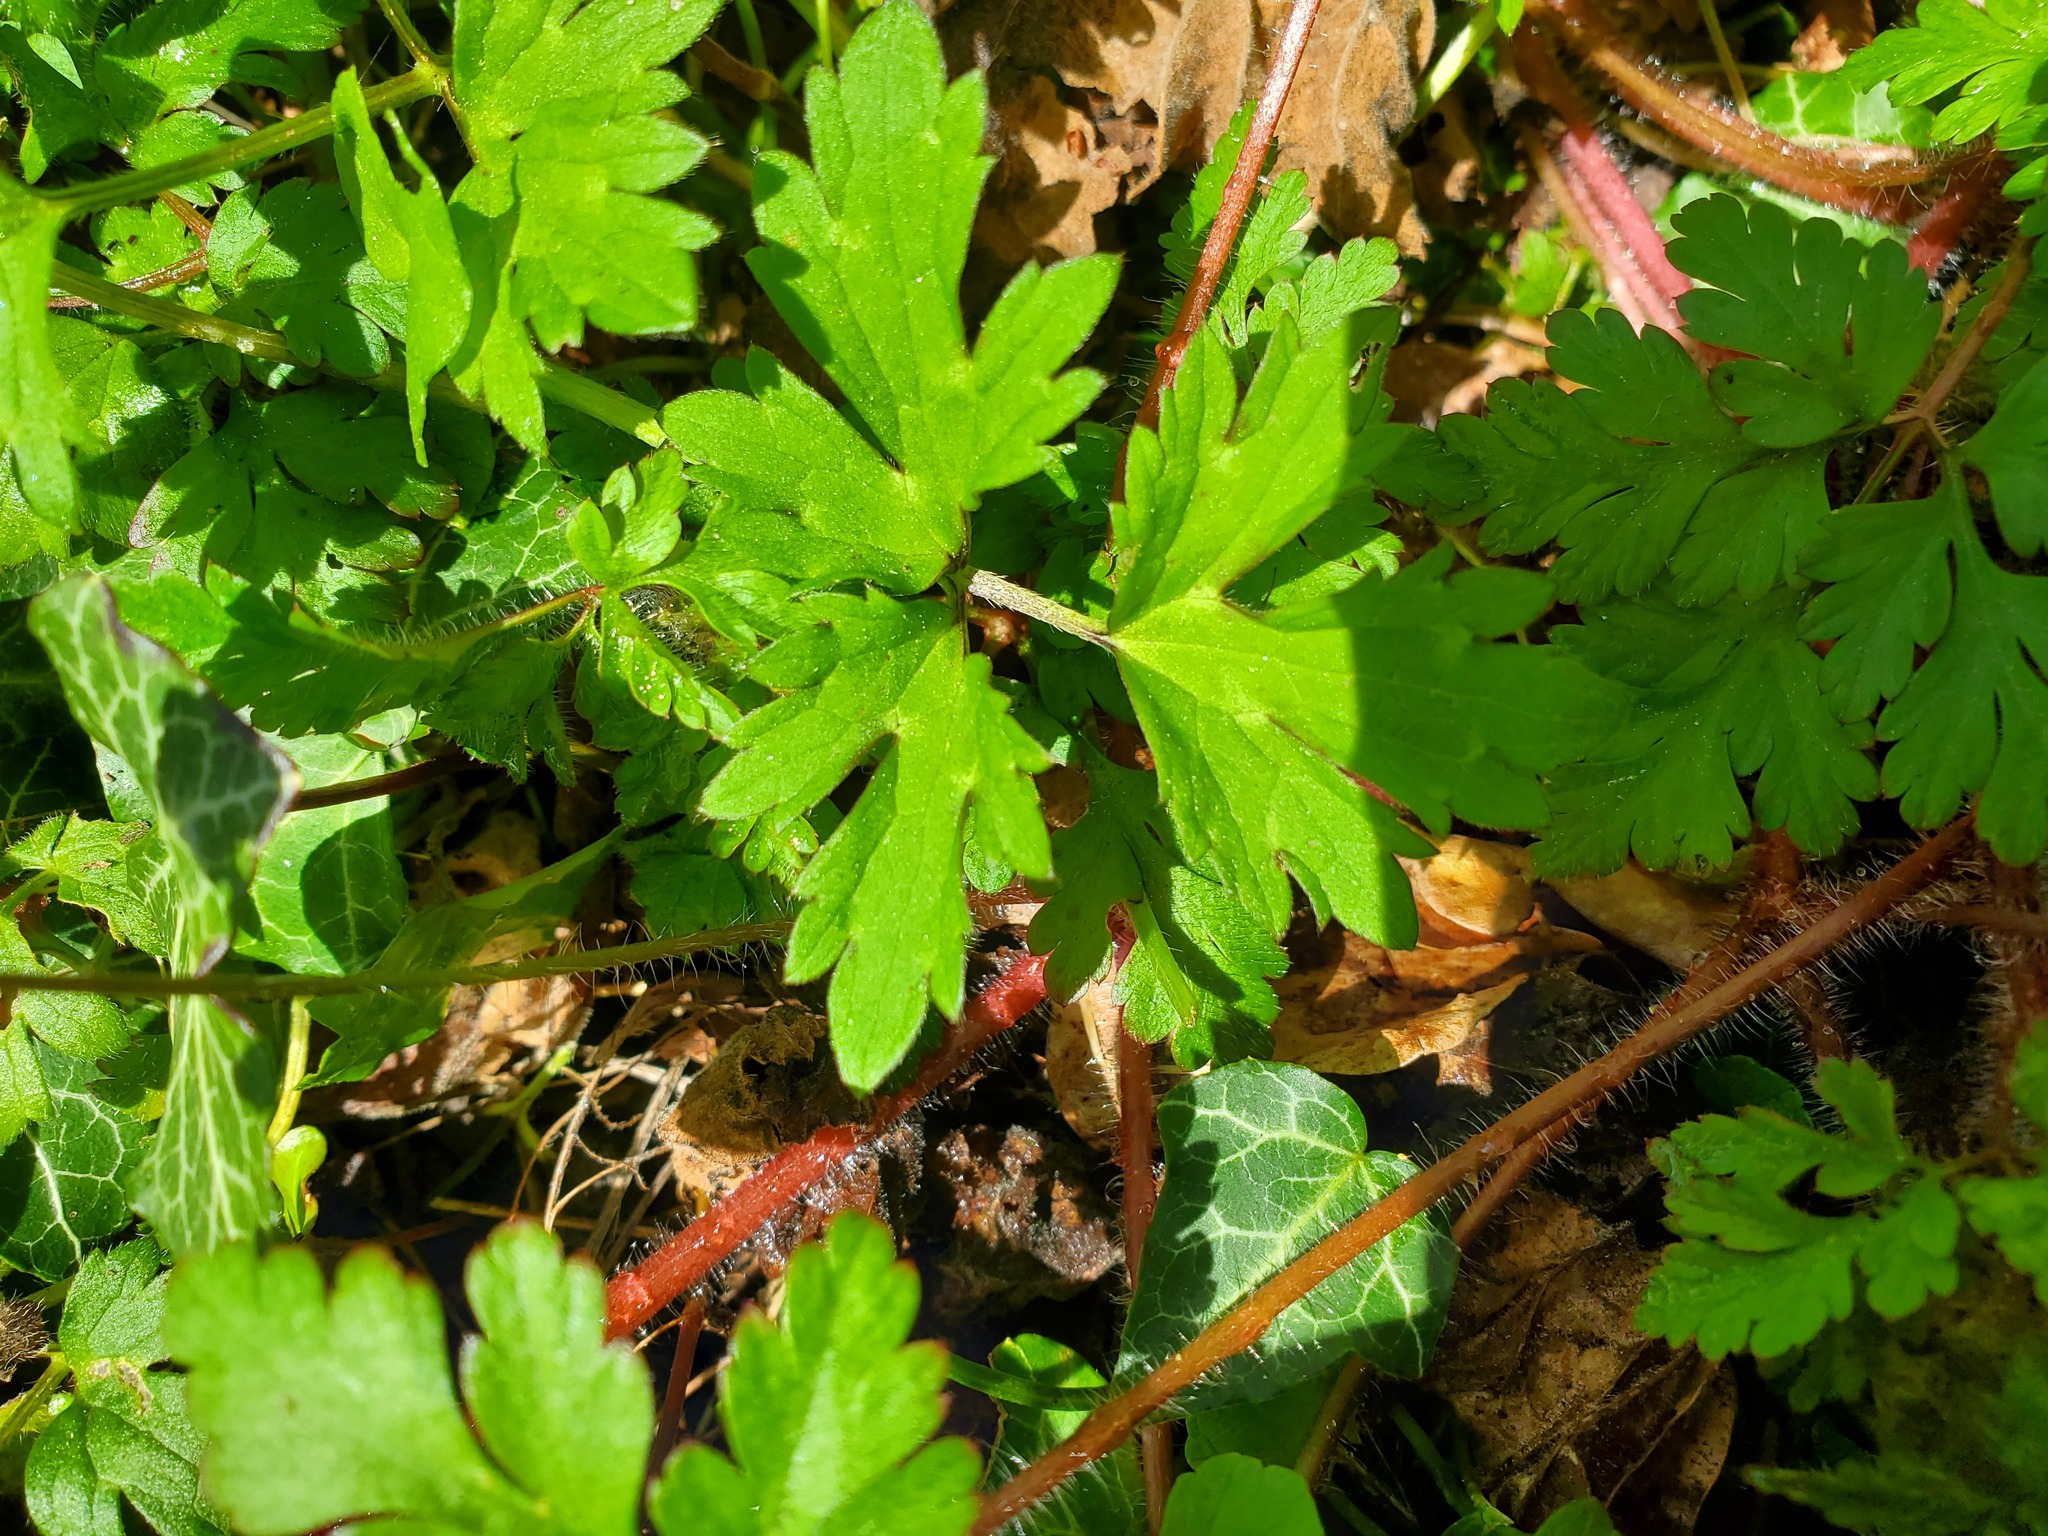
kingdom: Plantae
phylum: Tracheophyta
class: Magnoliopsida
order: Ranunculales
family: Ranunculaceae
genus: Ranunculus
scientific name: Ranunculus repens
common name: Creeping buttercup
